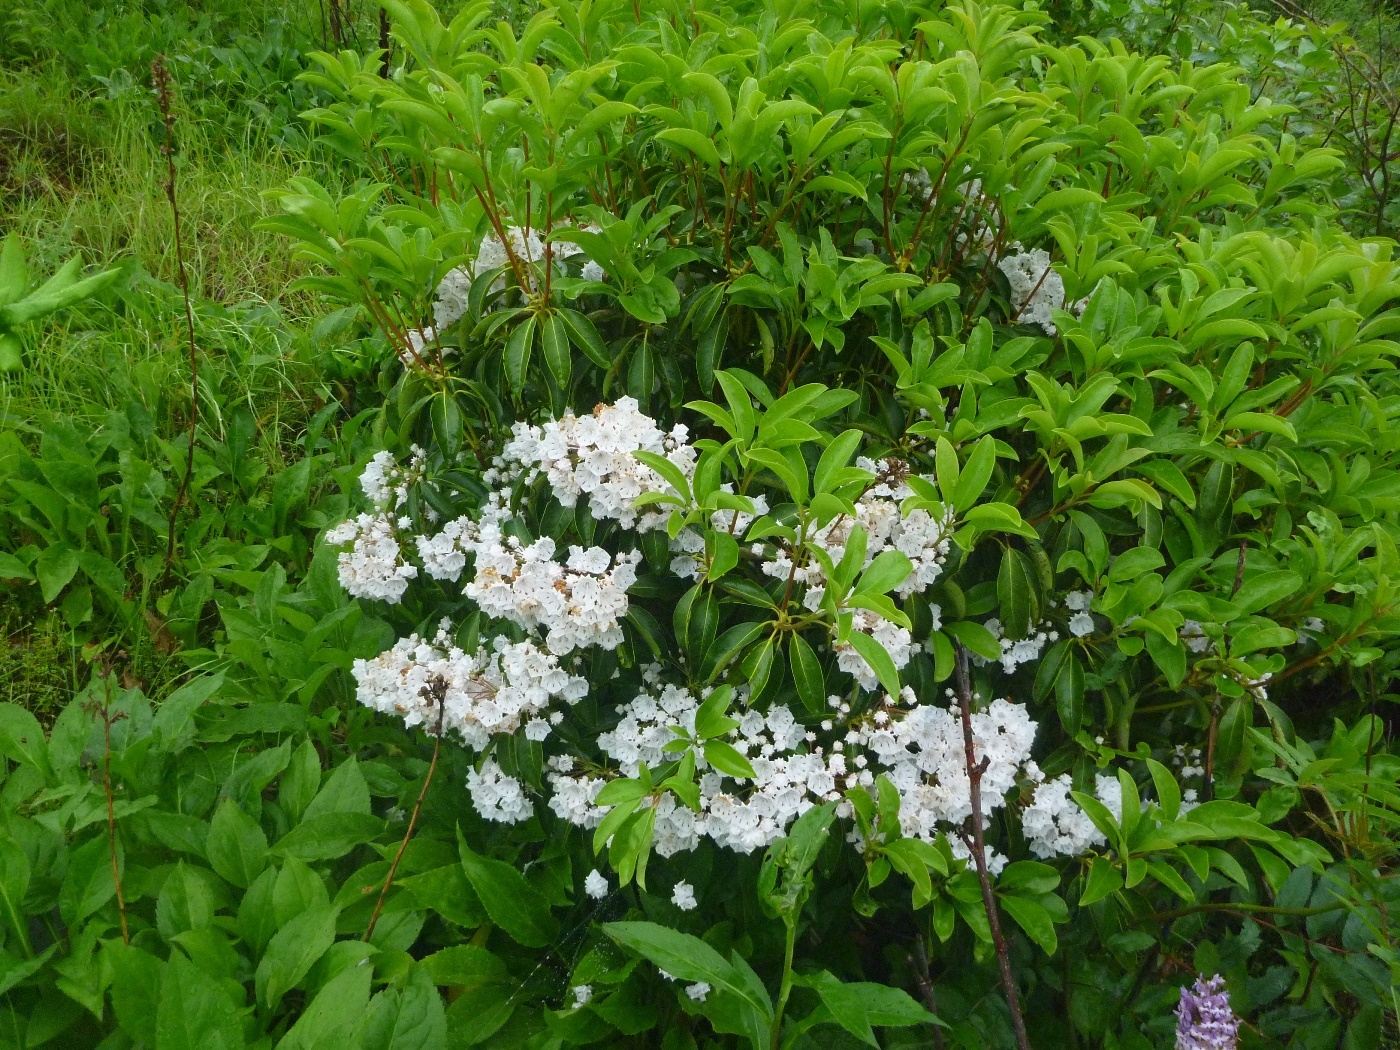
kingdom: Plantae
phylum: Tracheophyta
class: Magnoliopsida
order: Ericales
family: Ericaceae
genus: Kalmia
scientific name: Kalmia latifolia
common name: Mountain-laurel
